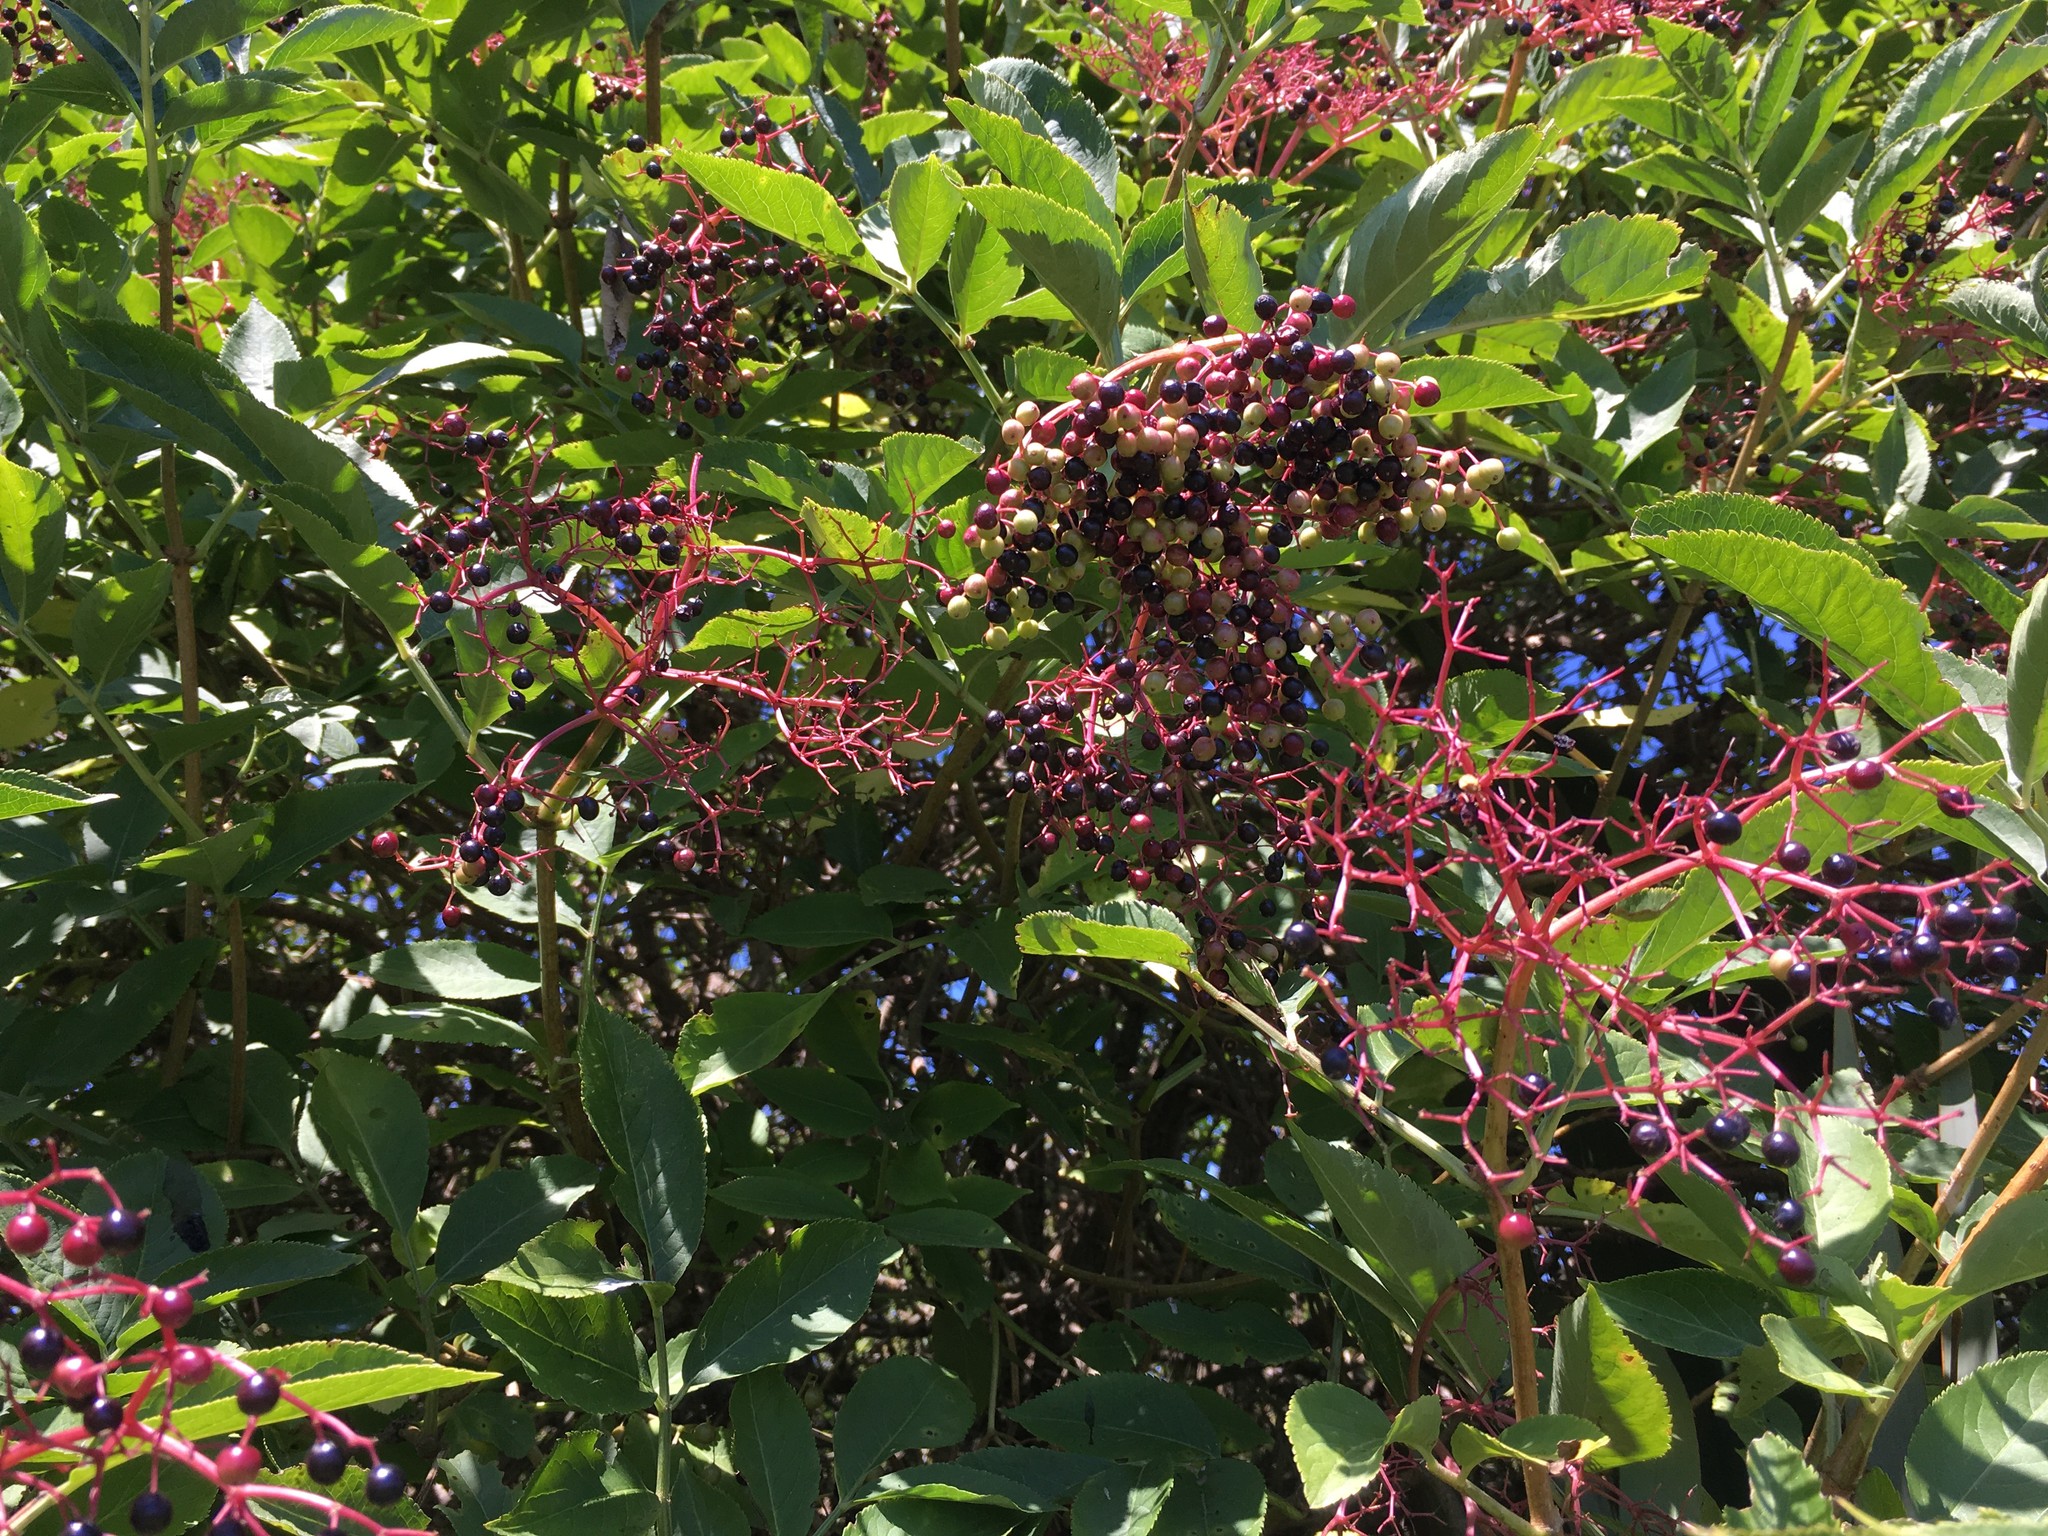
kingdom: Plantae
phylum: Tracheophyta
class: Magnoliopsida
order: Dipsacales
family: Viburnaceae
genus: Sambucus
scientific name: Sambucus nigra
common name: Elder
